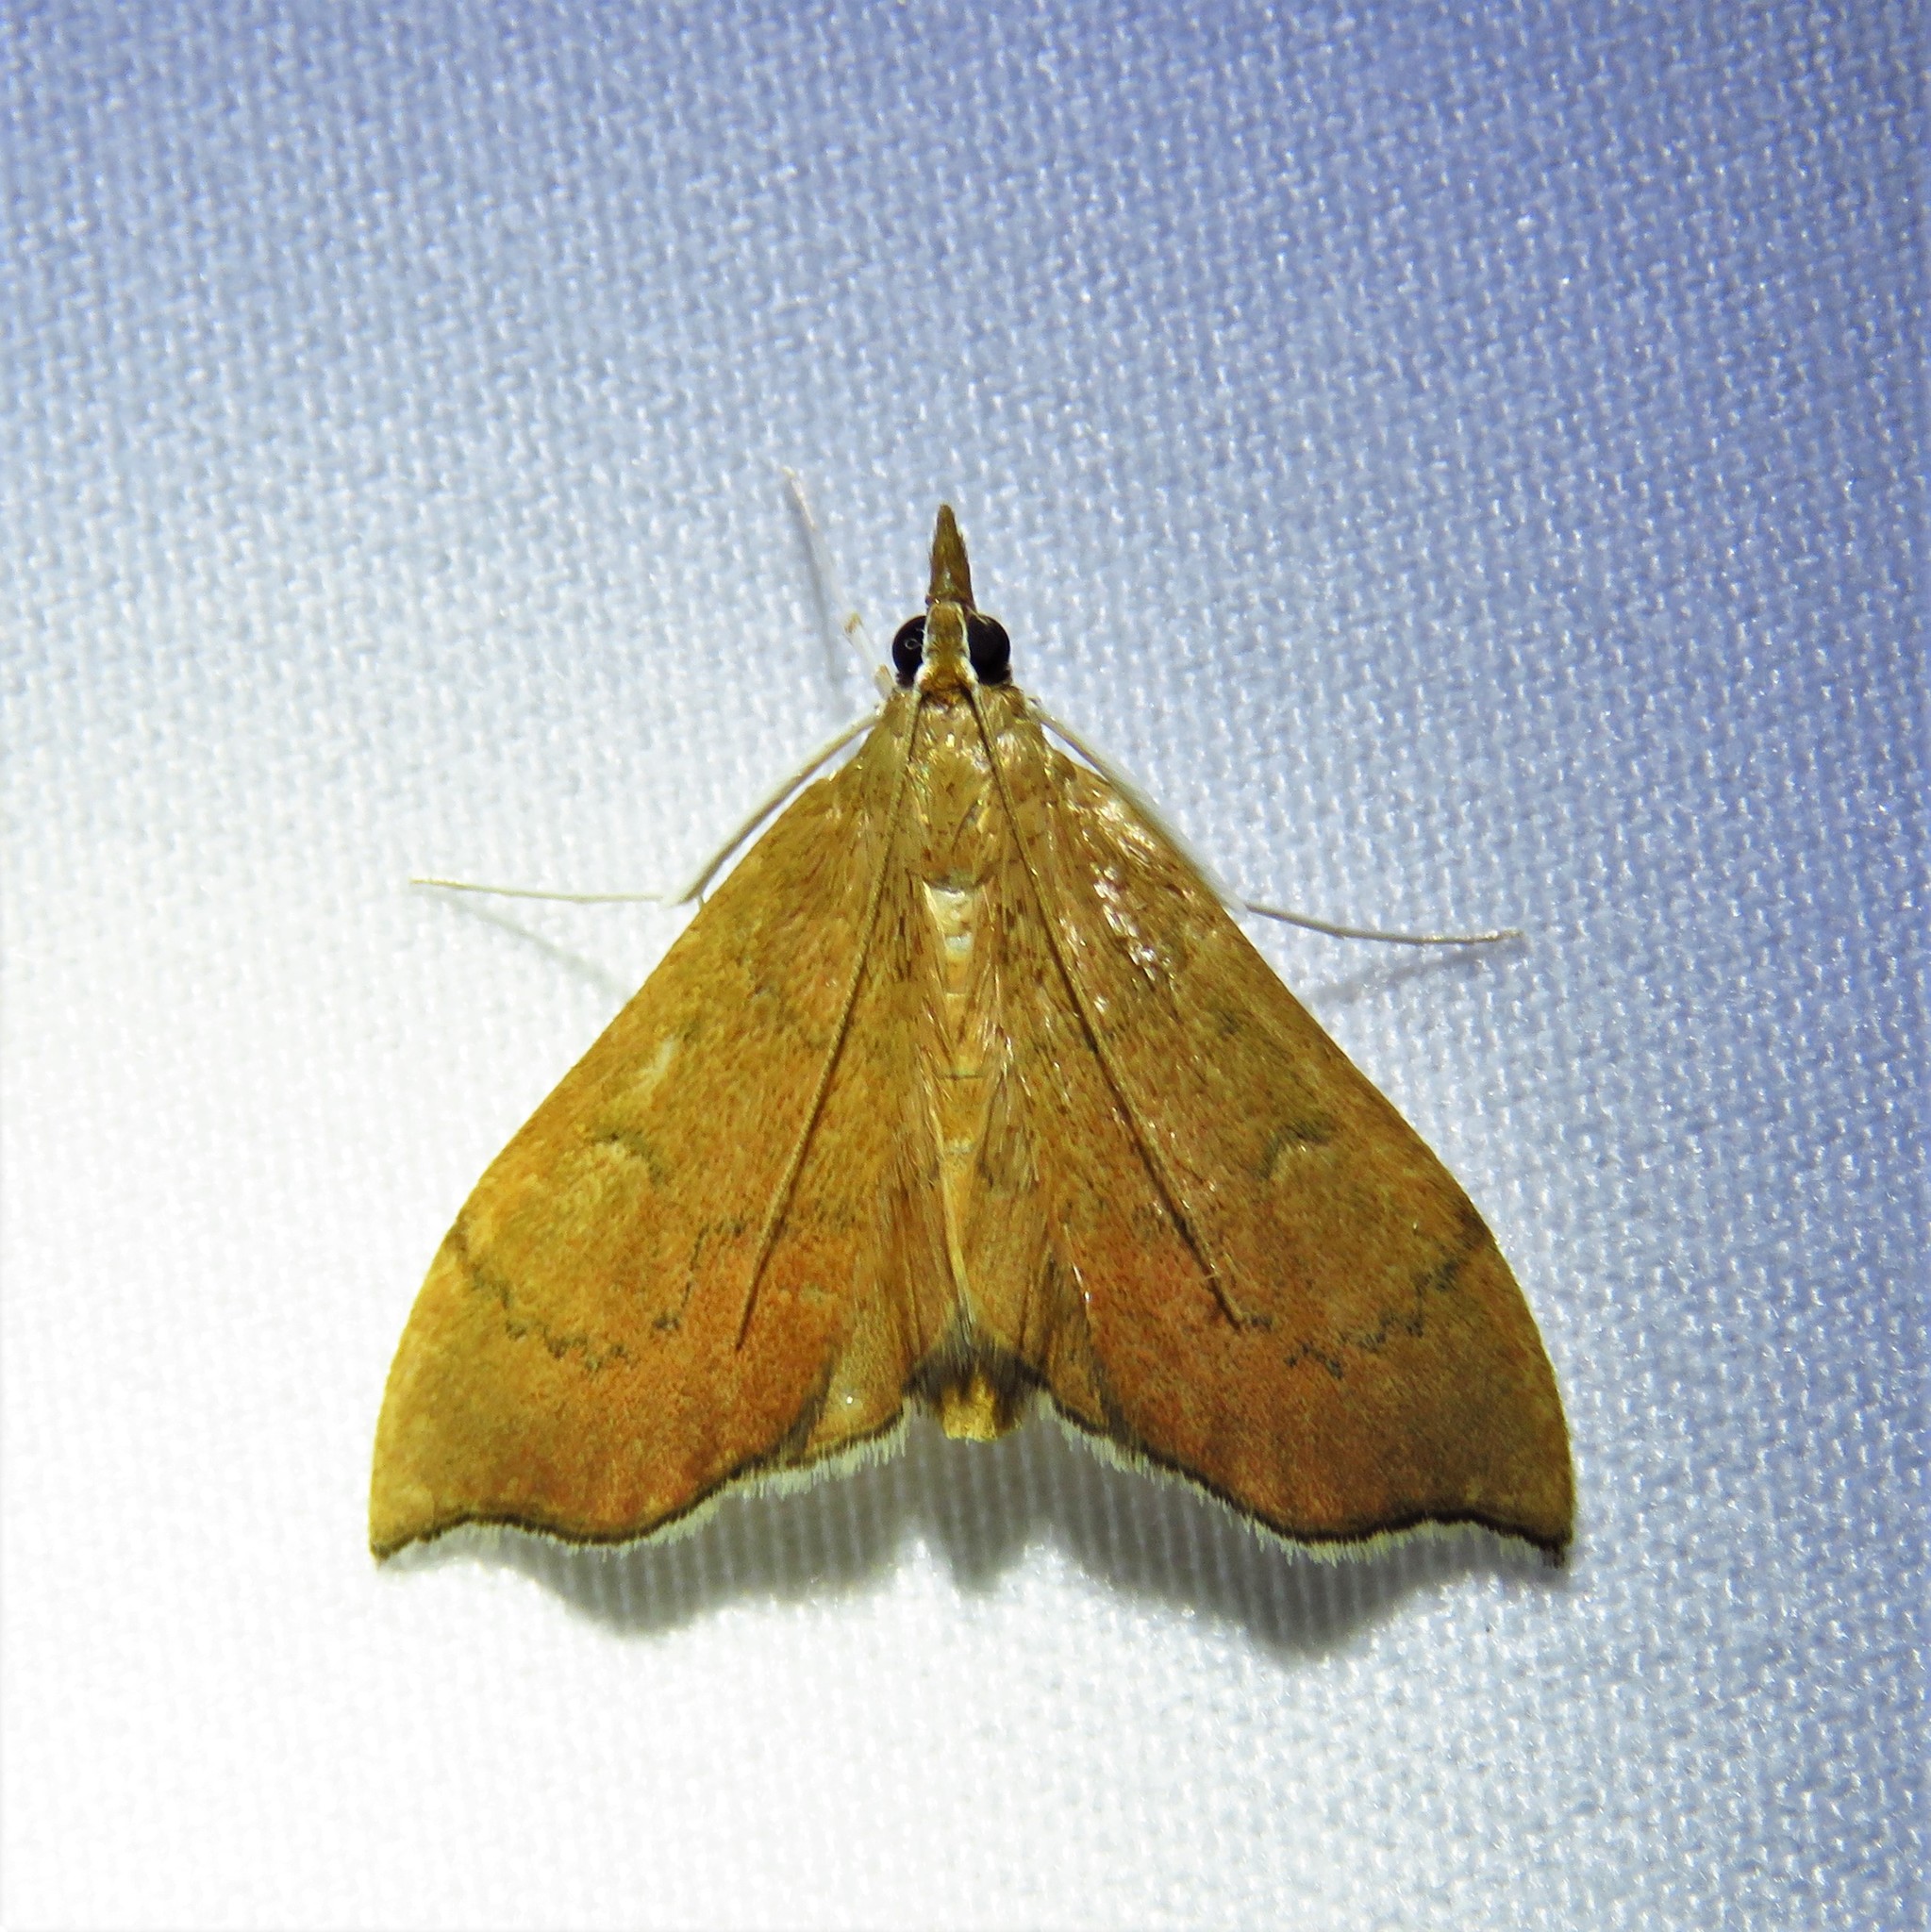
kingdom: Animalia
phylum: Arthropoda
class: Insecta
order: Lepidoptera
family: Crambidae
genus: Sericoplaga
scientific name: Sericoplaga externalis
